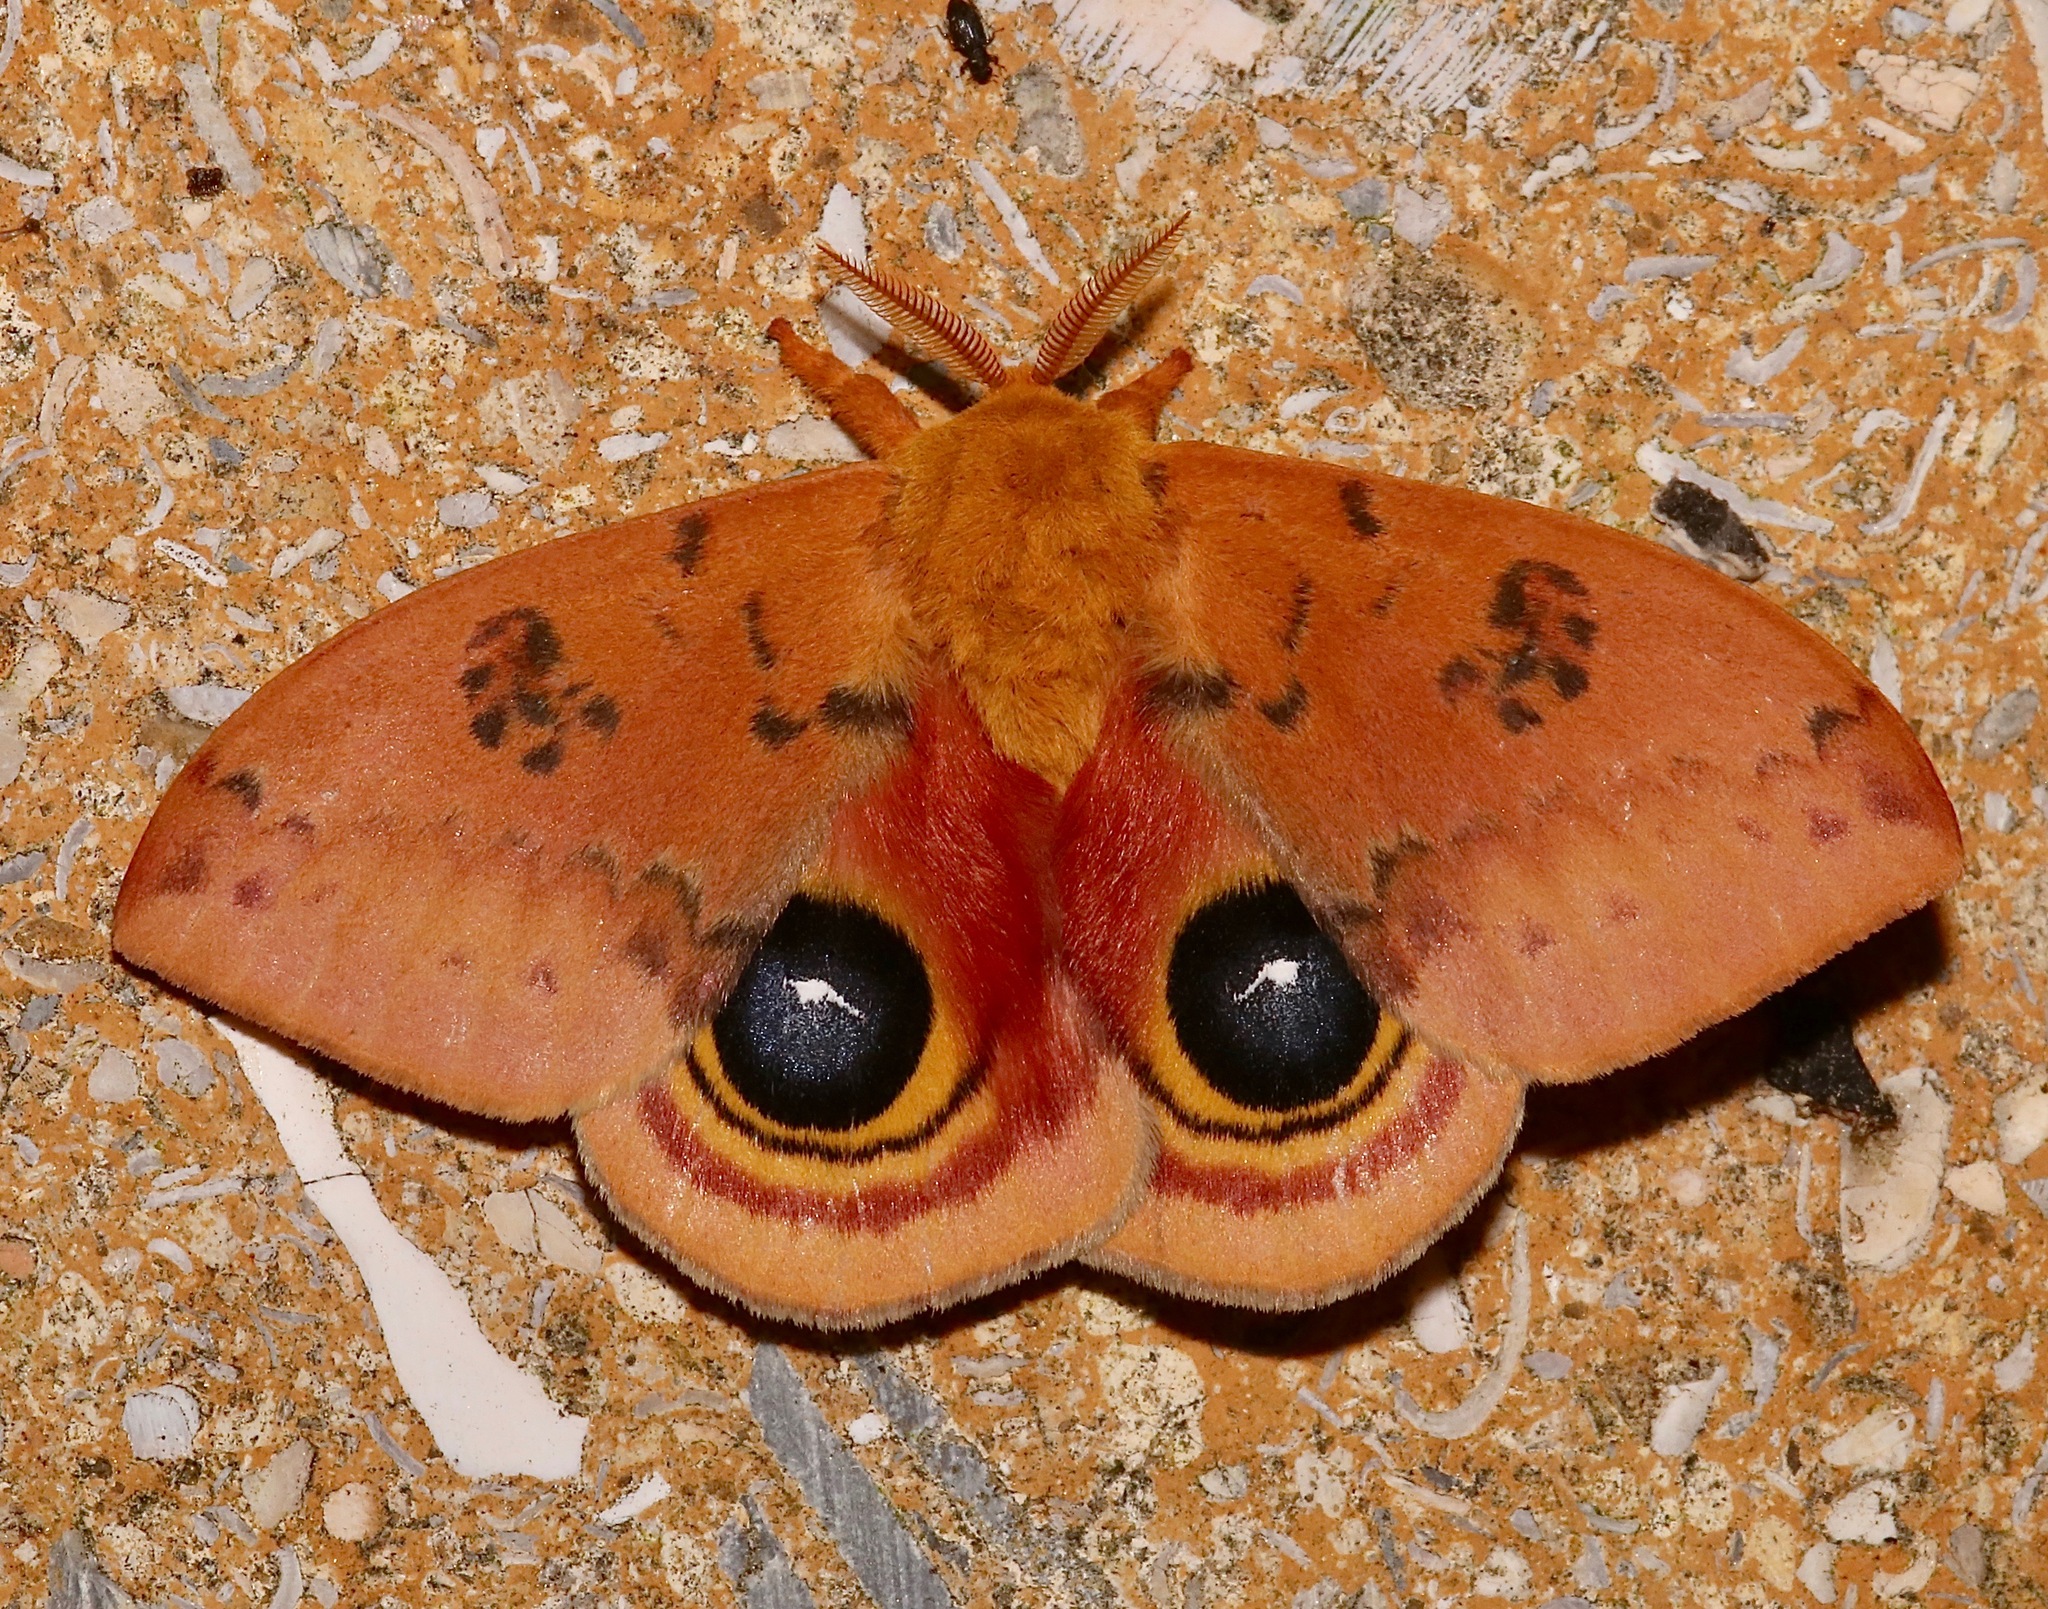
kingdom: Animalia
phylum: Arthropoda
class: Insecta
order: Lepidoptera
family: Saturniidae
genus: Automeris
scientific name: Automeris io
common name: Io moth
